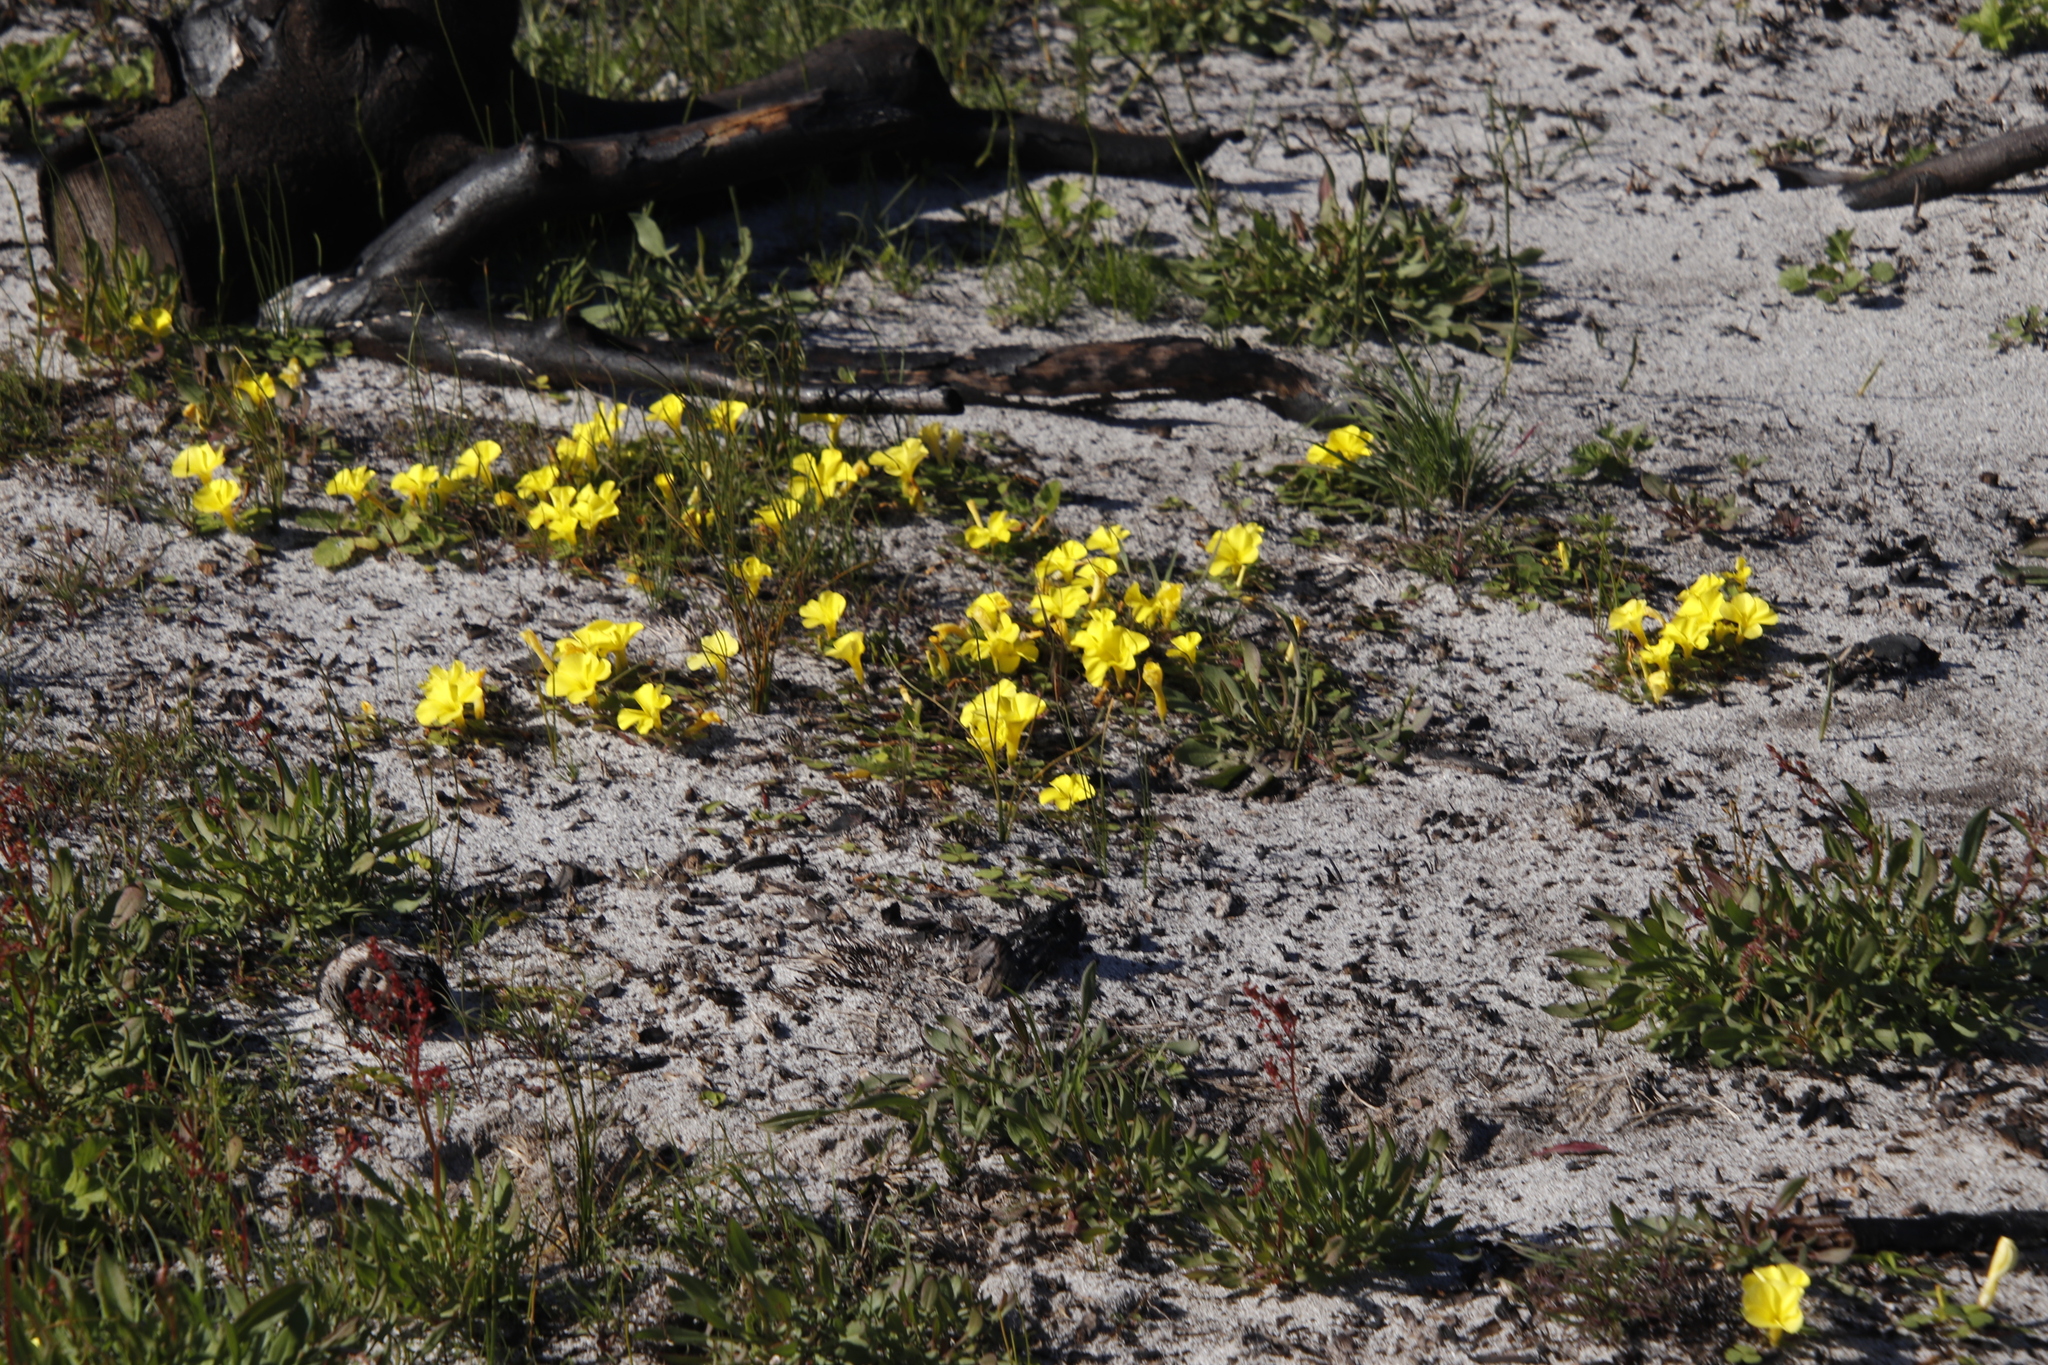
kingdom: Plantae
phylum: Tracheophyta
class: Magnoliopsida
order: Oxalidales
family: Oxalidaceae
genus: Oxalis
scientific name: Oxalis luteola
